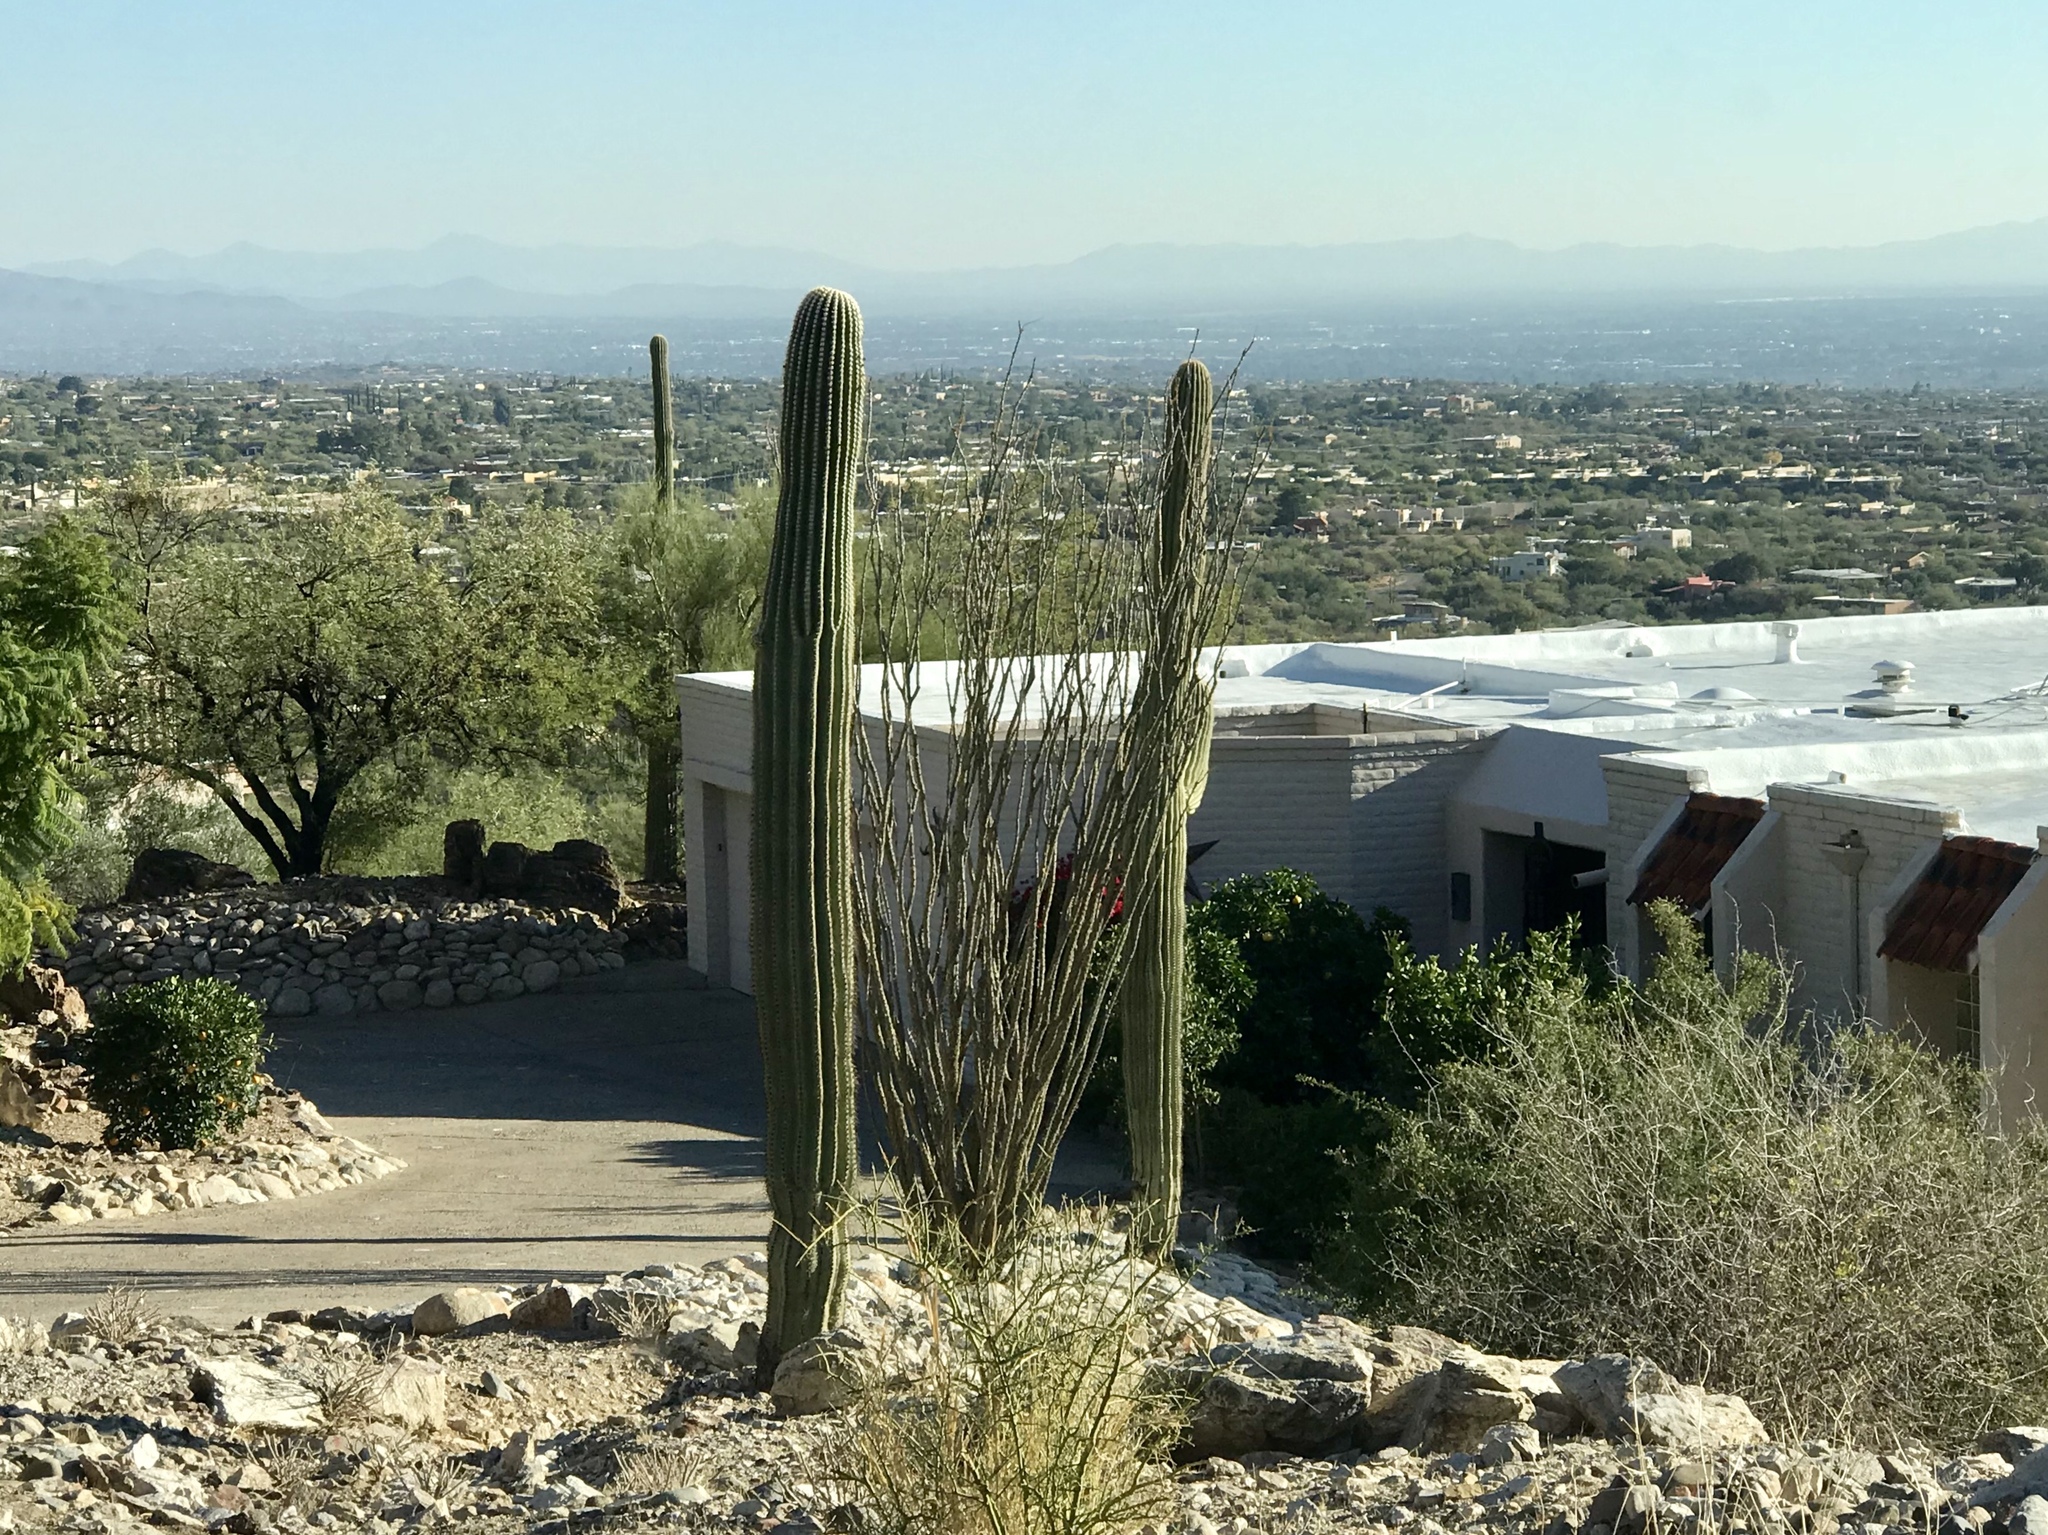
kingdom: Plantae
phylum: Tracheophyta
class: Magnoliopsida
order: Caryophyllales
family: Cactaceae
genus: Carnegiea
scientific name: Carnegiea gigantea
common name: Saguaro
